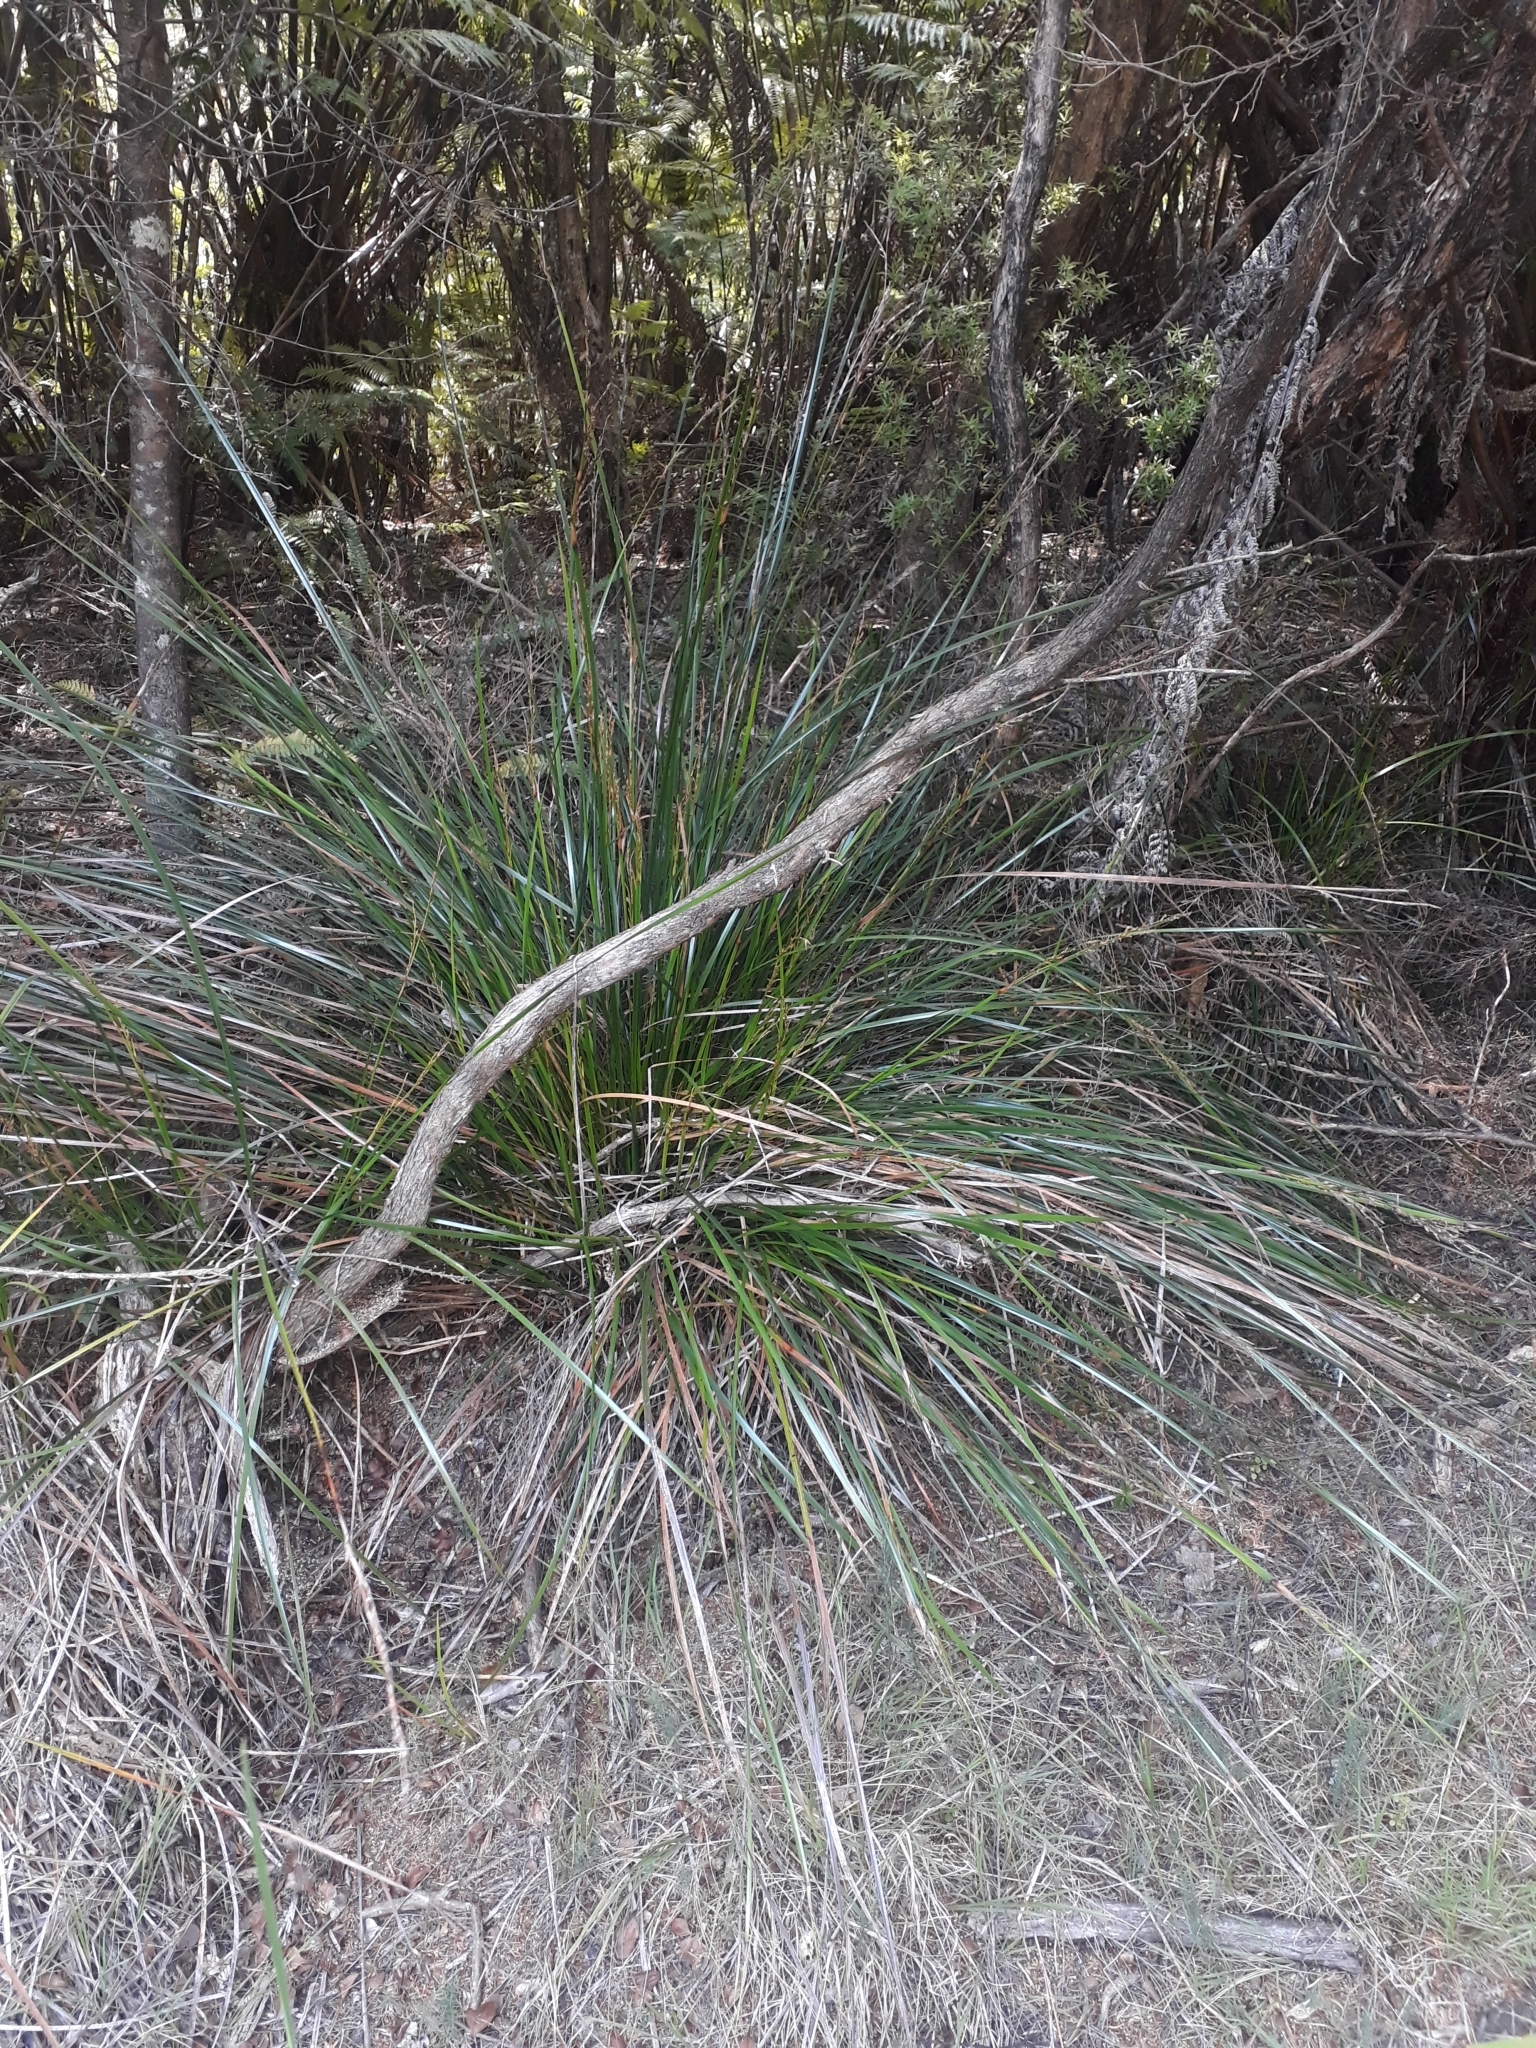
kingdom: Plantae
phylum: Tracheophyta
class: Liliopsida
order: Poales
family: Cyperaceae
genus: Lepidosperma
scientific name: Lepidosperma laterale
